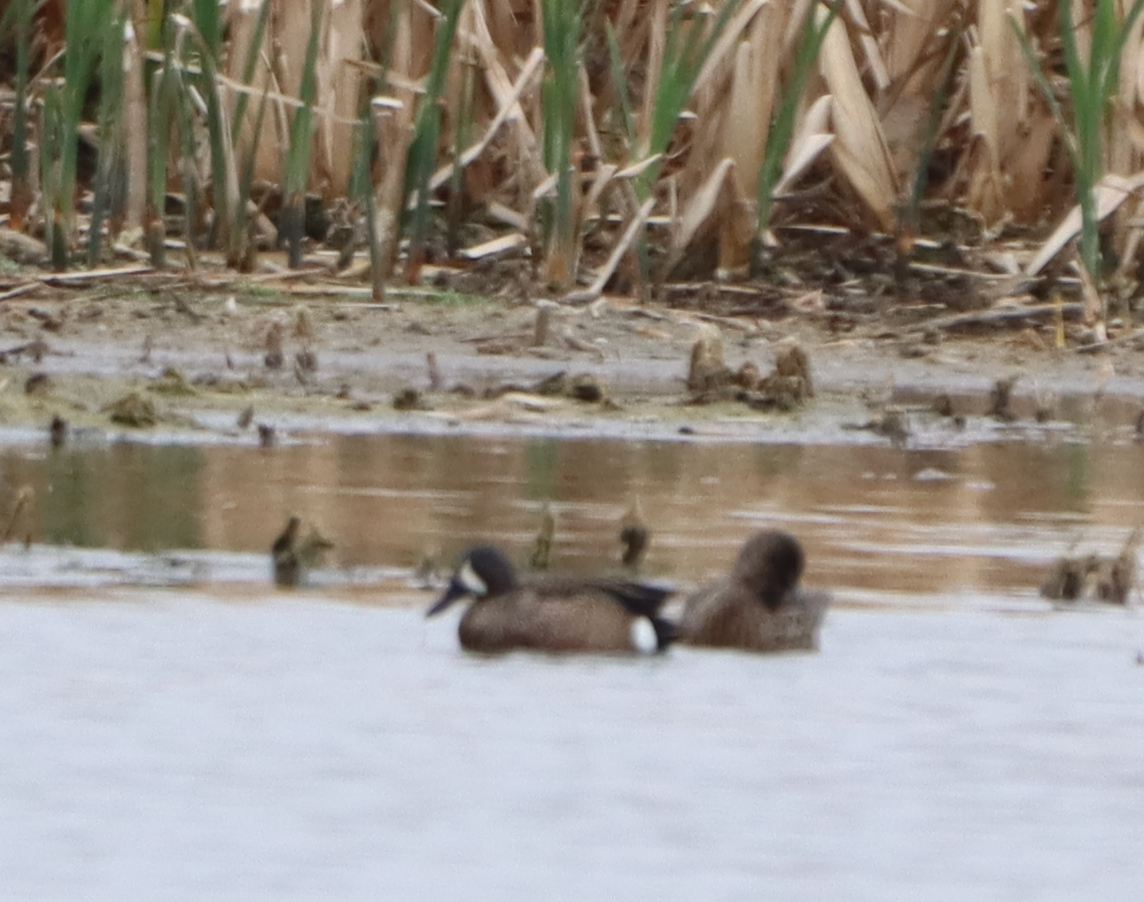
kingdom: Animalia
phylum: Chordata
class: Aves
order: Anseriformes
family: Anatidae
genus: Spatula
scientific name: Spatula discors
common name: Blue-winged teal
